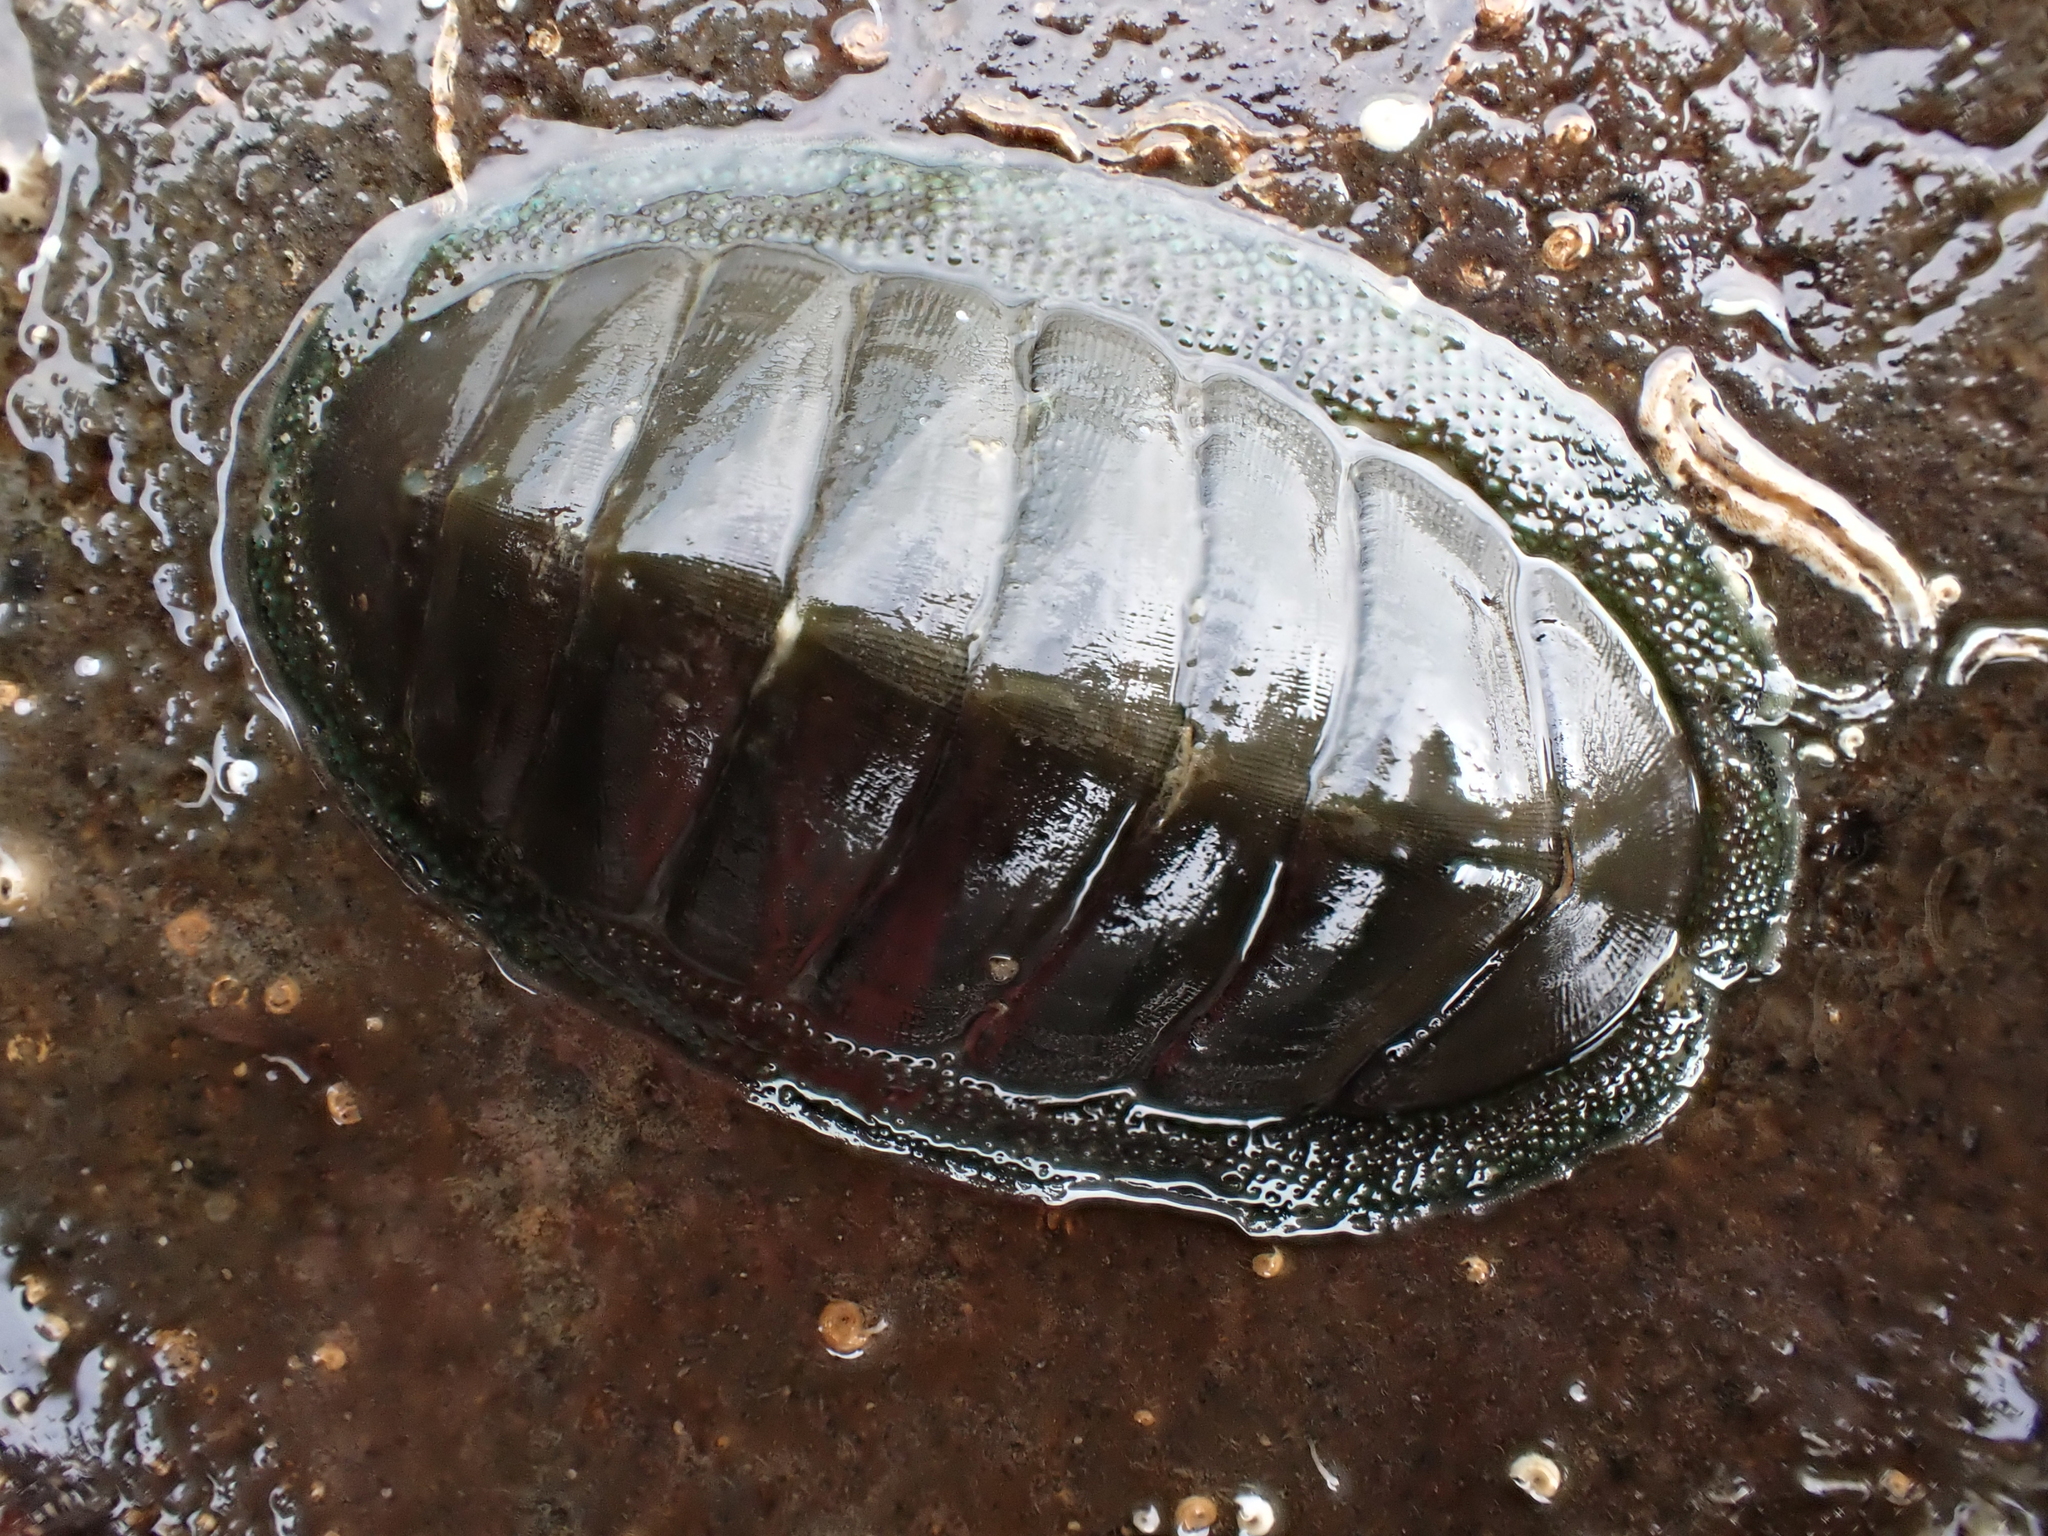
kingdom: Animalia
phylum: Mollusca
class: Polyplacophora
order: Chitonida
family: Chitonidae
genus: Chiton
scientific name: Chiton glaucus
